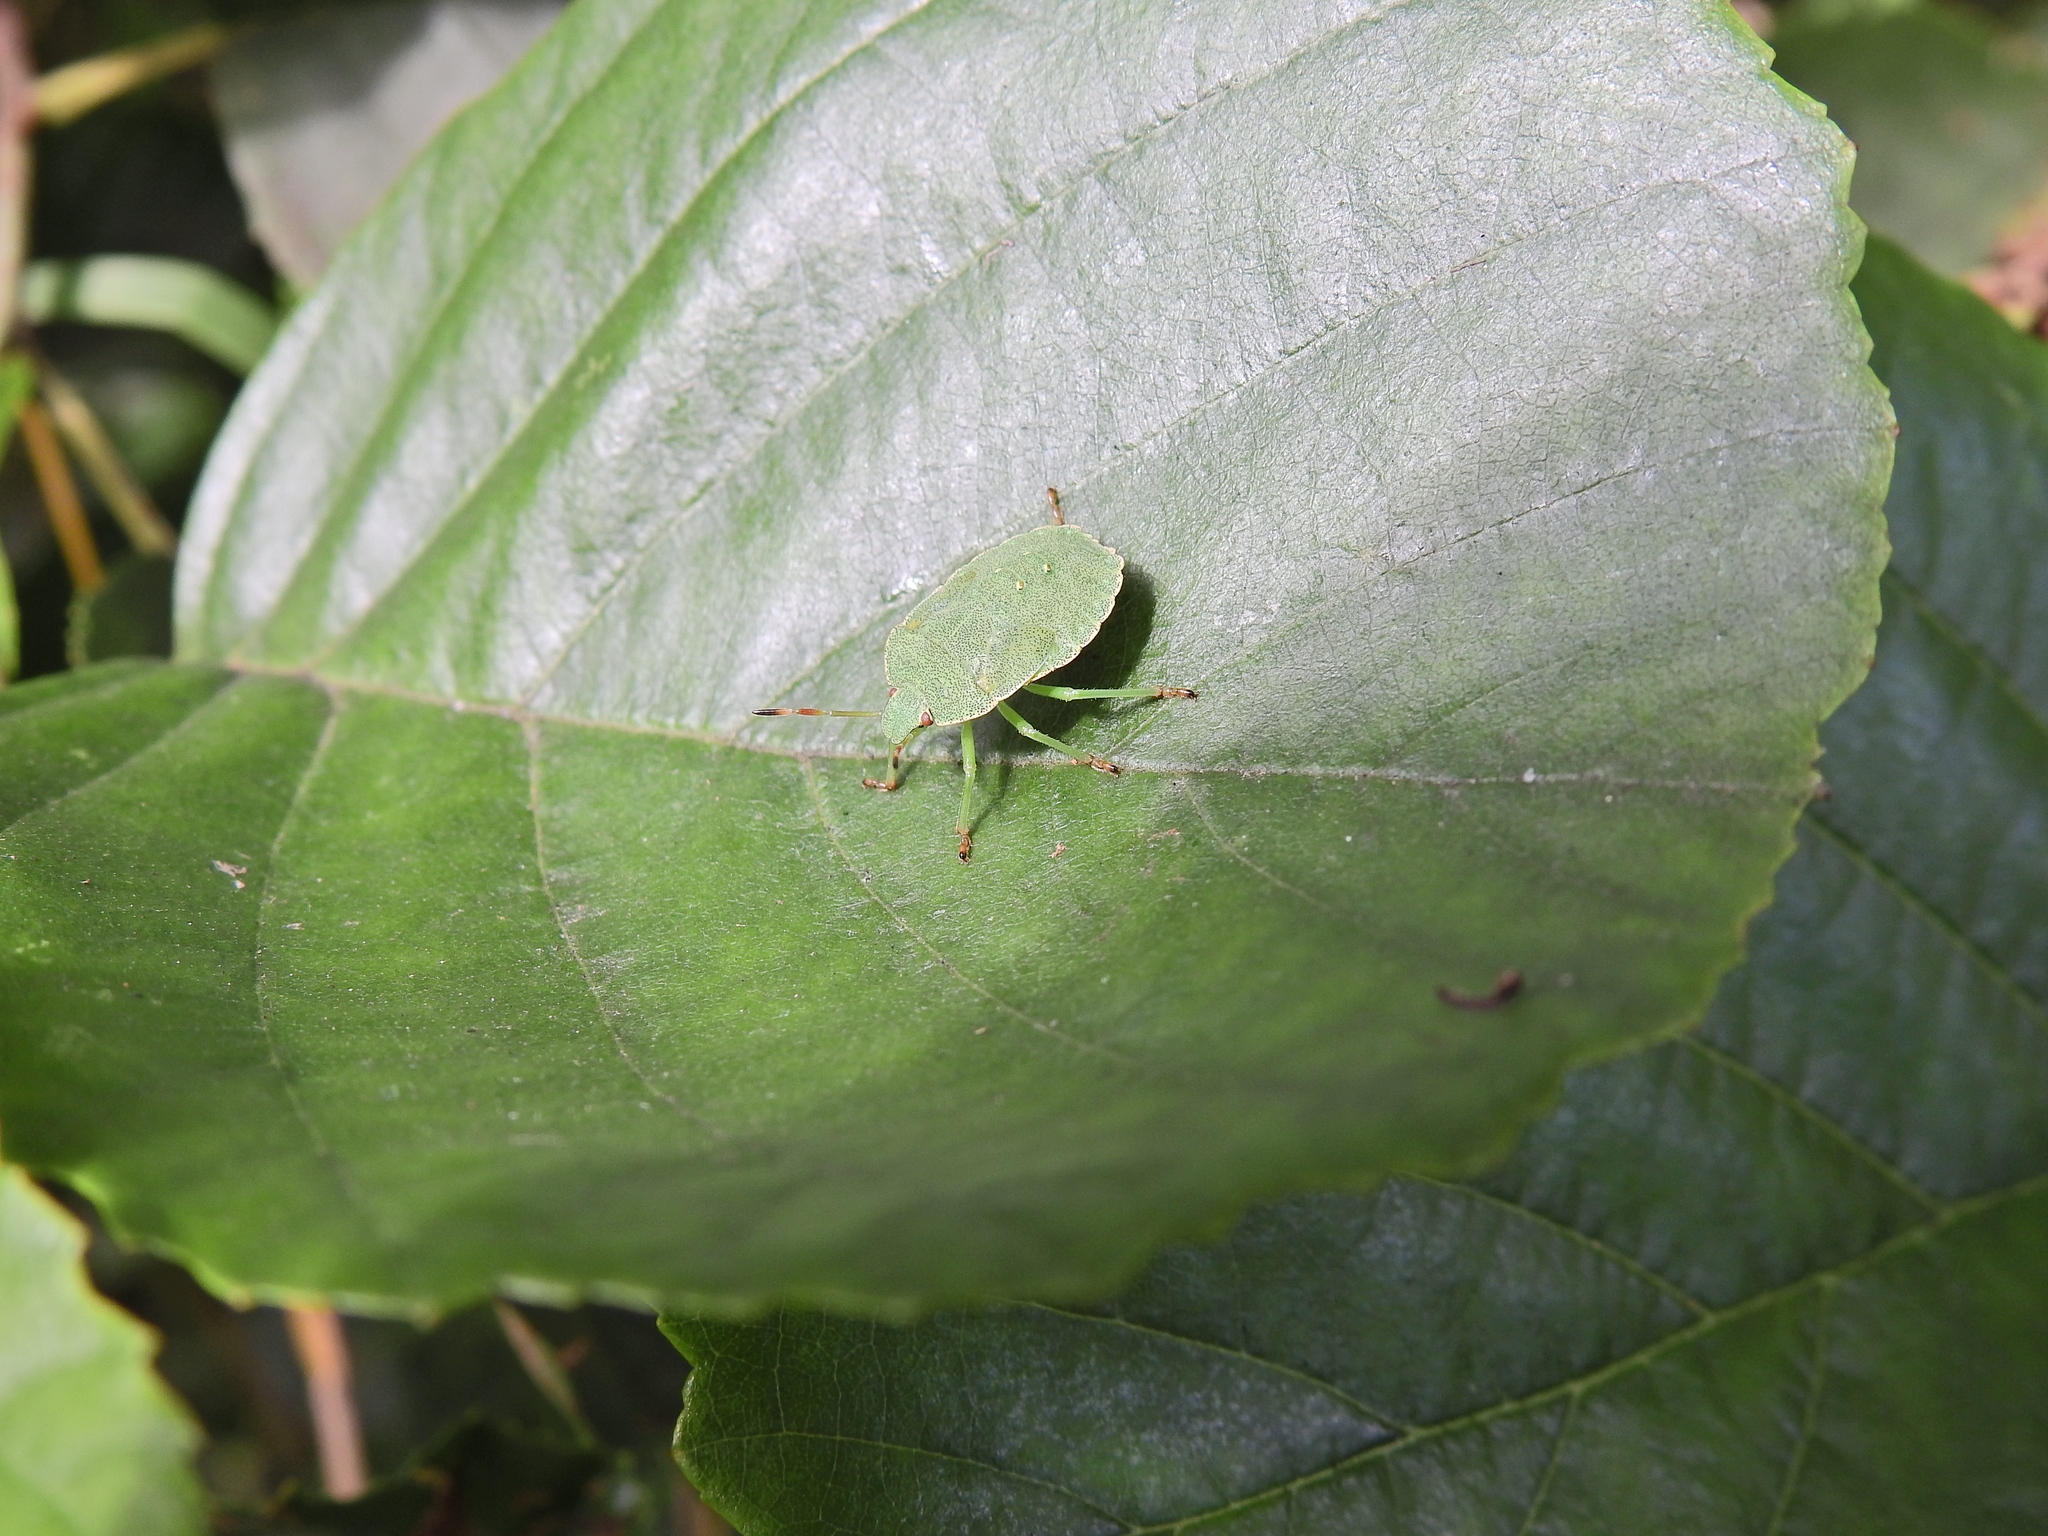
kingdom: Animalia
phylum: Arthropoda
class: Insecta
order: Hemiptera
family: Pentatomidae
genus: Palomena
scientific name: Palomena prasina
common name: Green shieldbug
